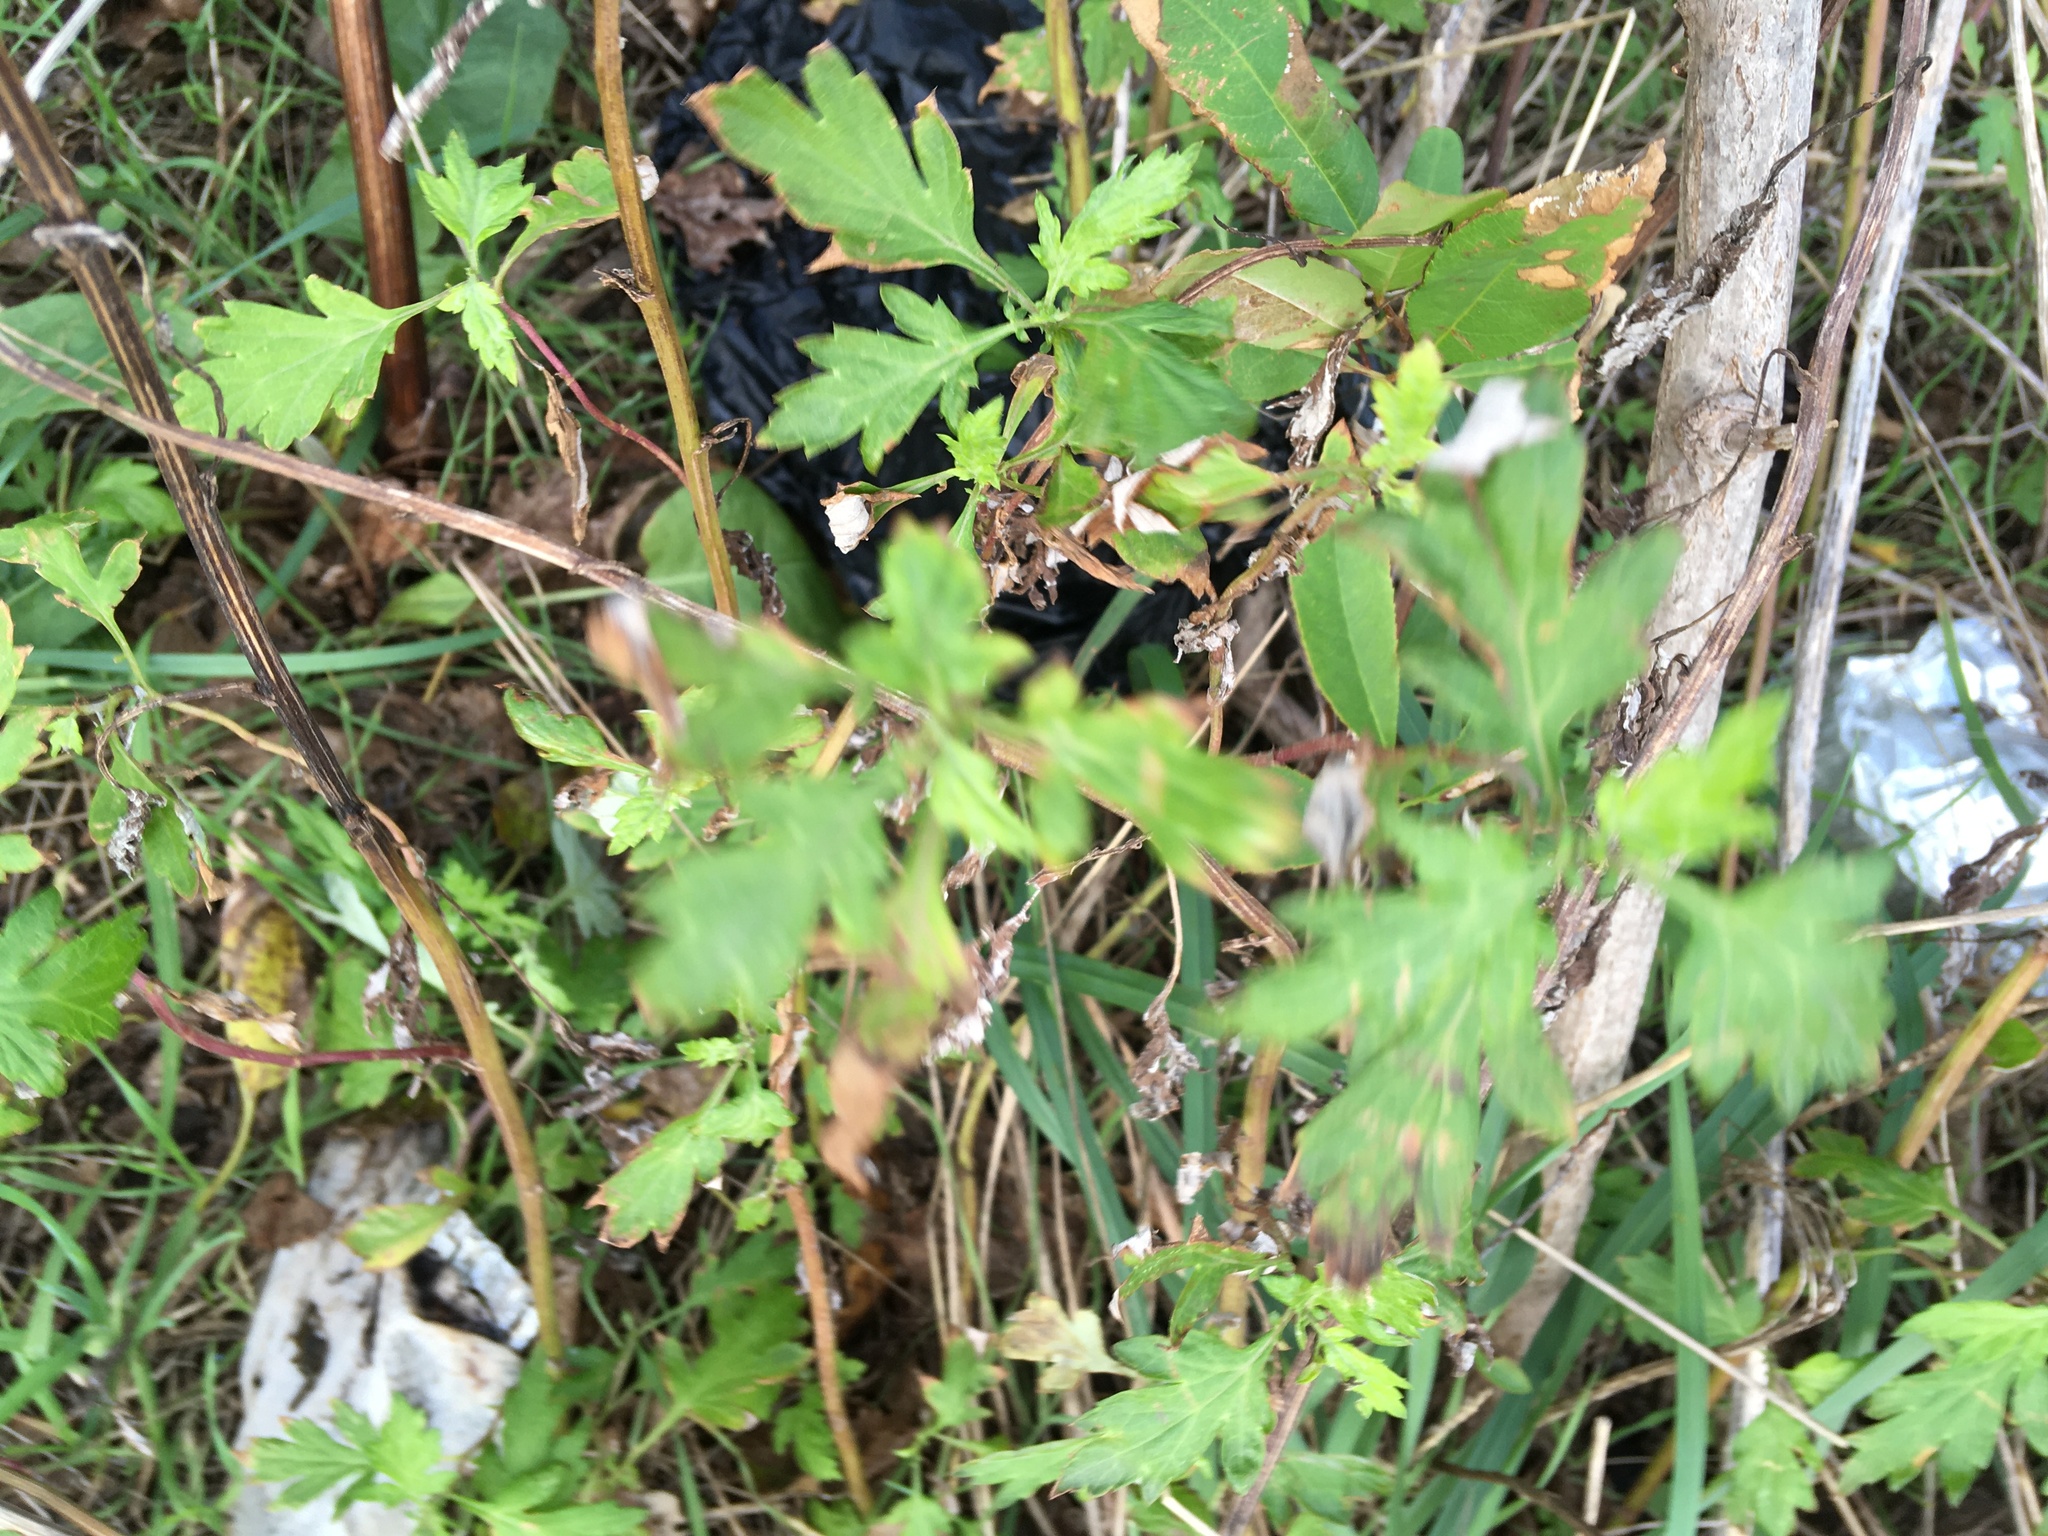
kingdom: Plantae
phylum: Tracheophyta
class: Magnoliopsida
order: Asterales
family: Asteraceae
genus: Artemisia
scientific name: Artemisia vulgaris
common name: Mugwort
